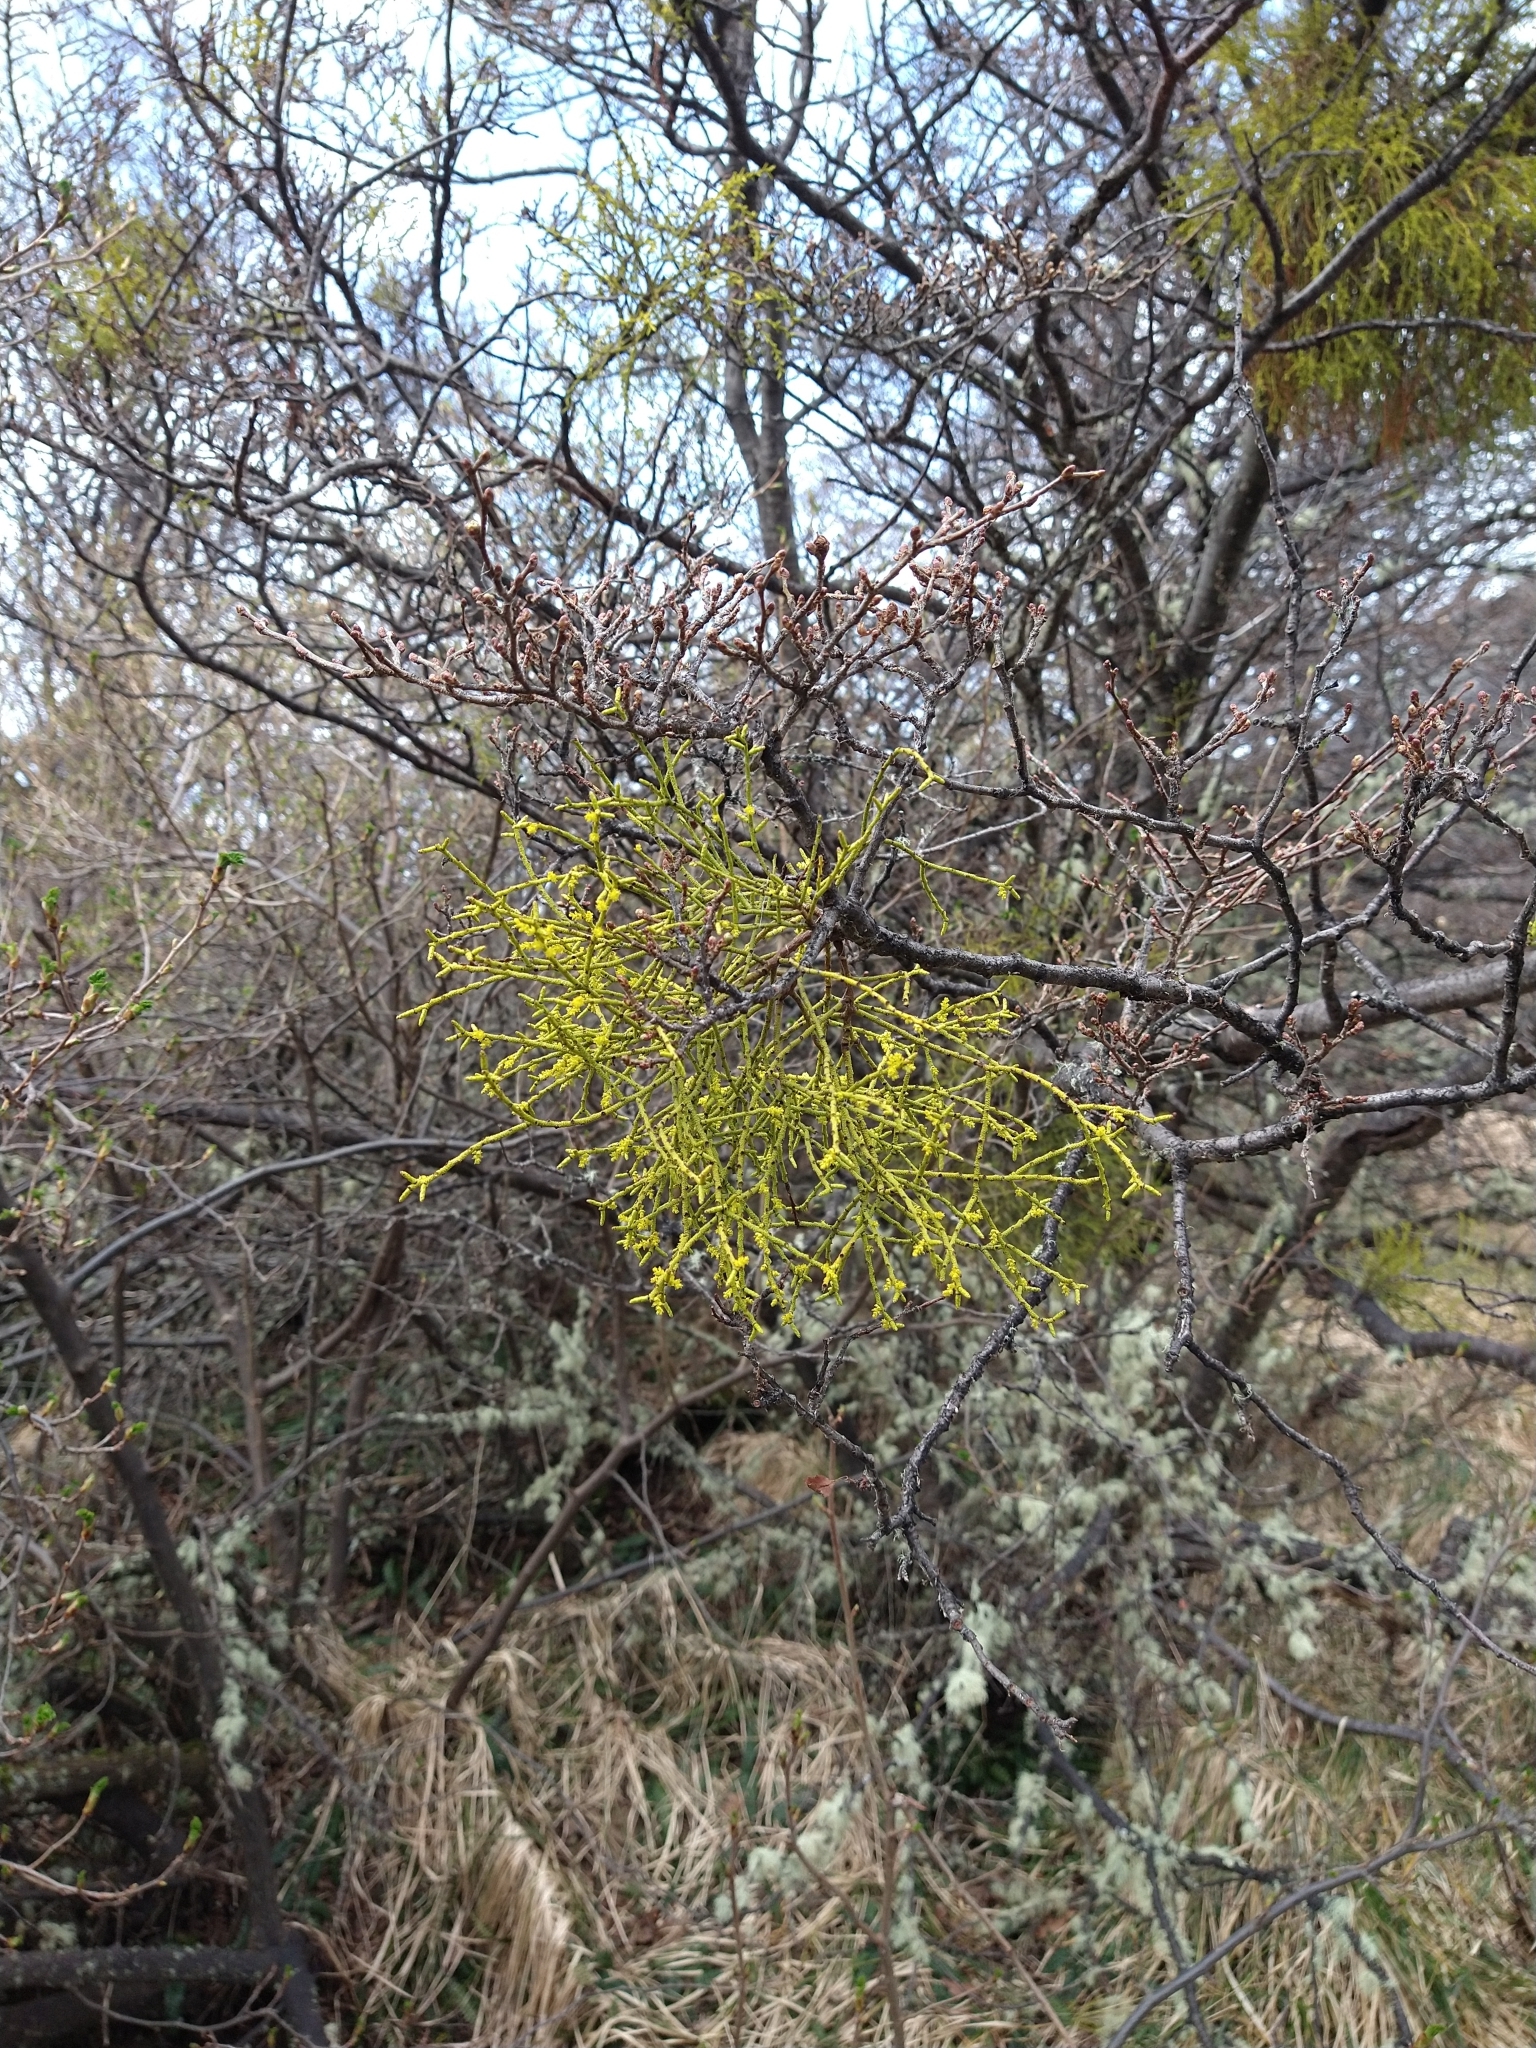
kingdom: Plantae
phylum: Tracheophyta
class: Magnoliopsida
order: Santalales
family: Misodendraceae
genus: Misodendrum
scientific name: Misodendrum punctulatum
